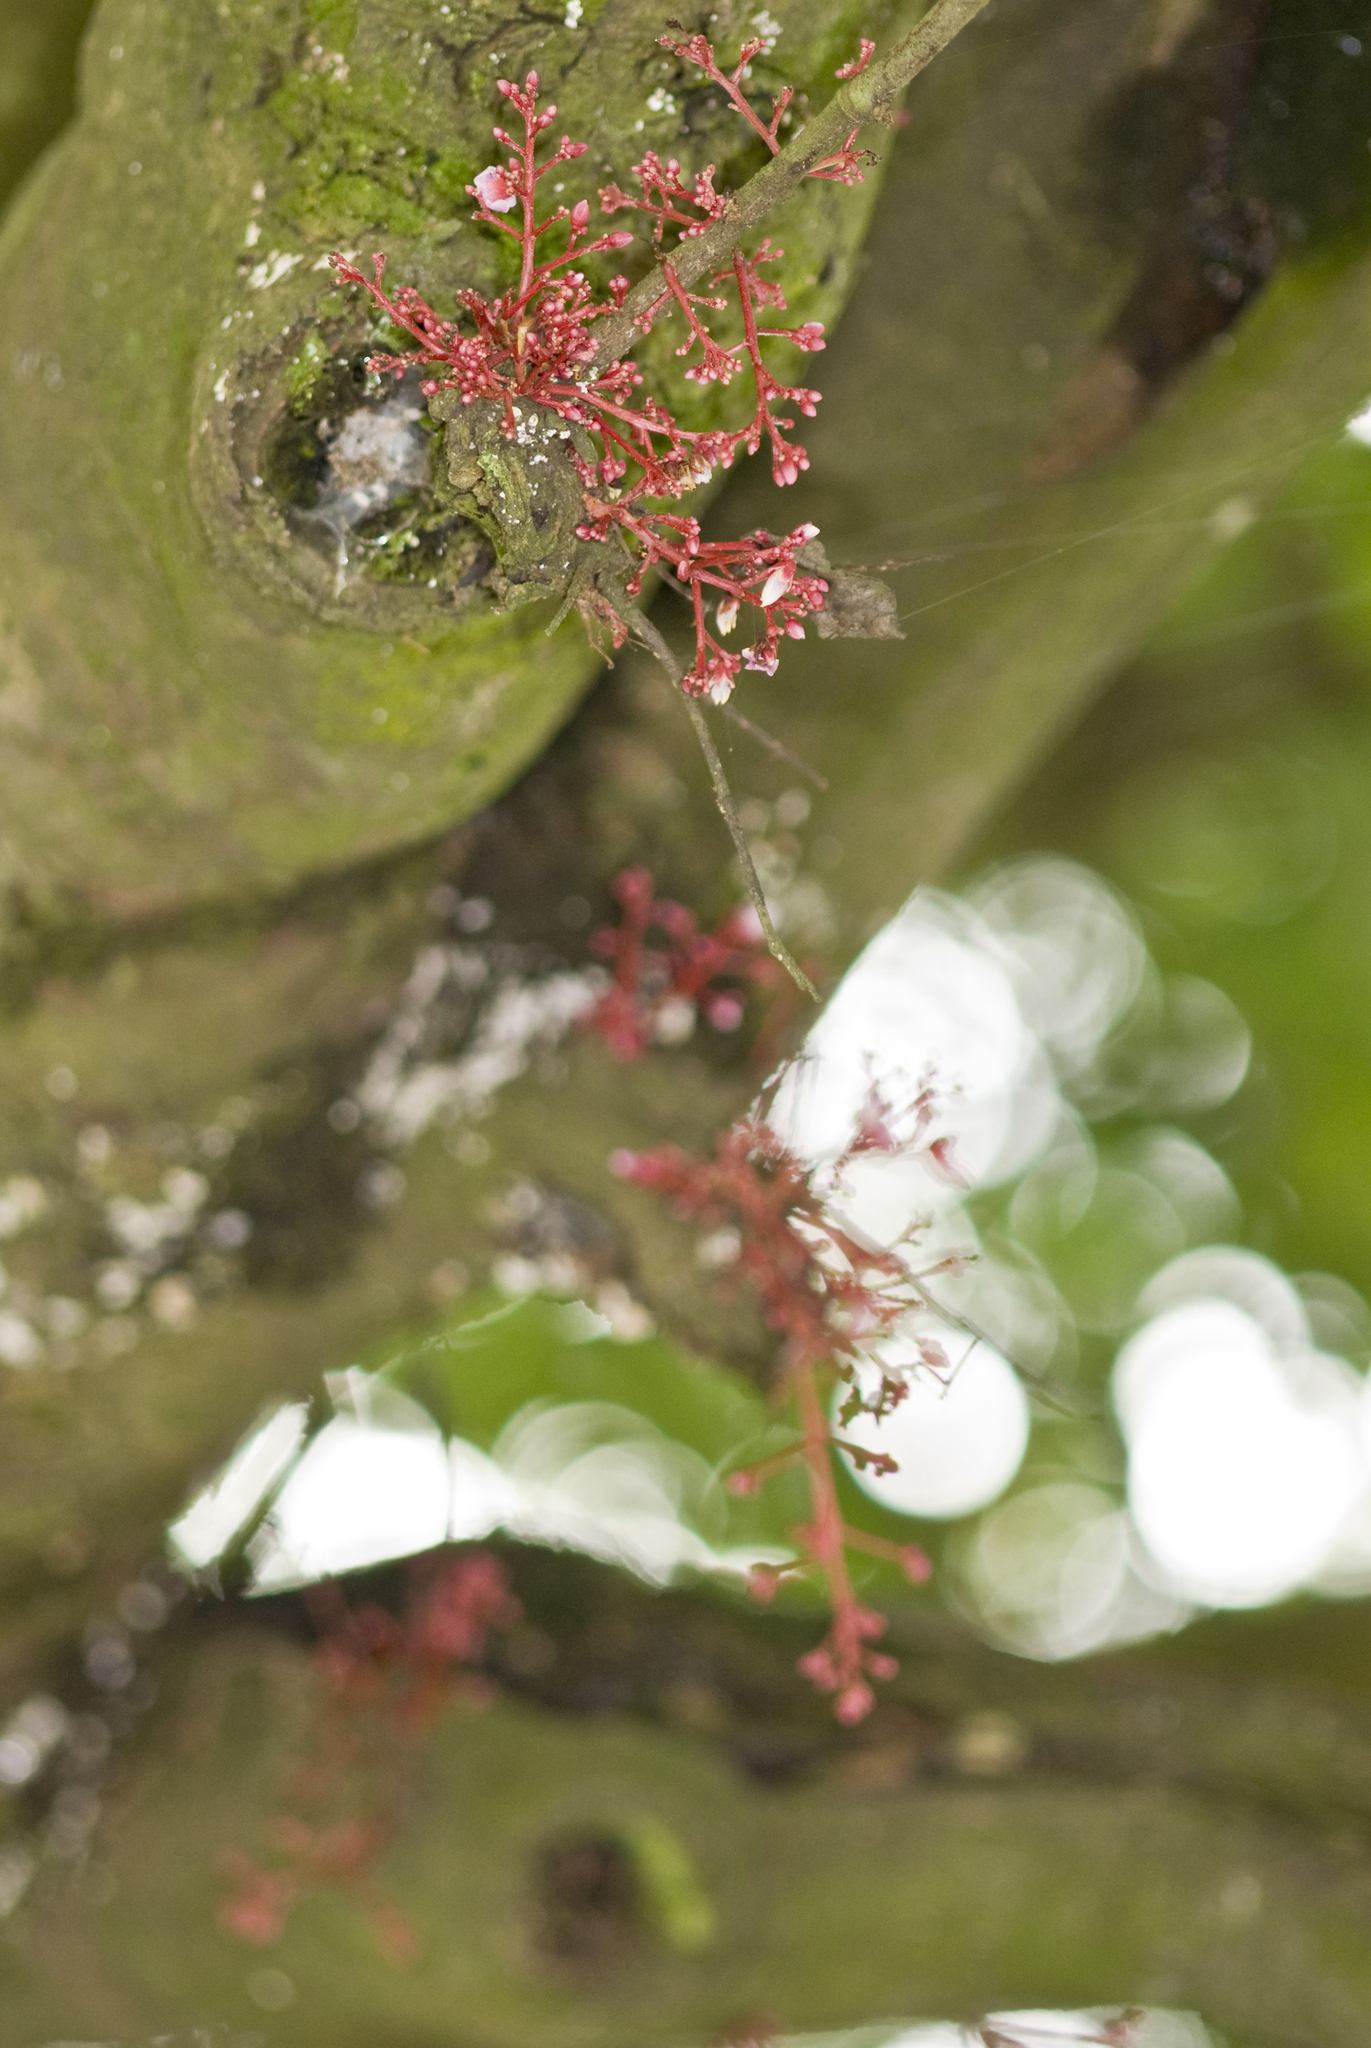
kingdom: Plantae
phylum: Tracheophyta
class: Magnoliopsida
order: Oxalidales
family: Oxalidaceae
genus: Averrhoa
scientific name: Averrhoa carambola
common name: Blimbing
